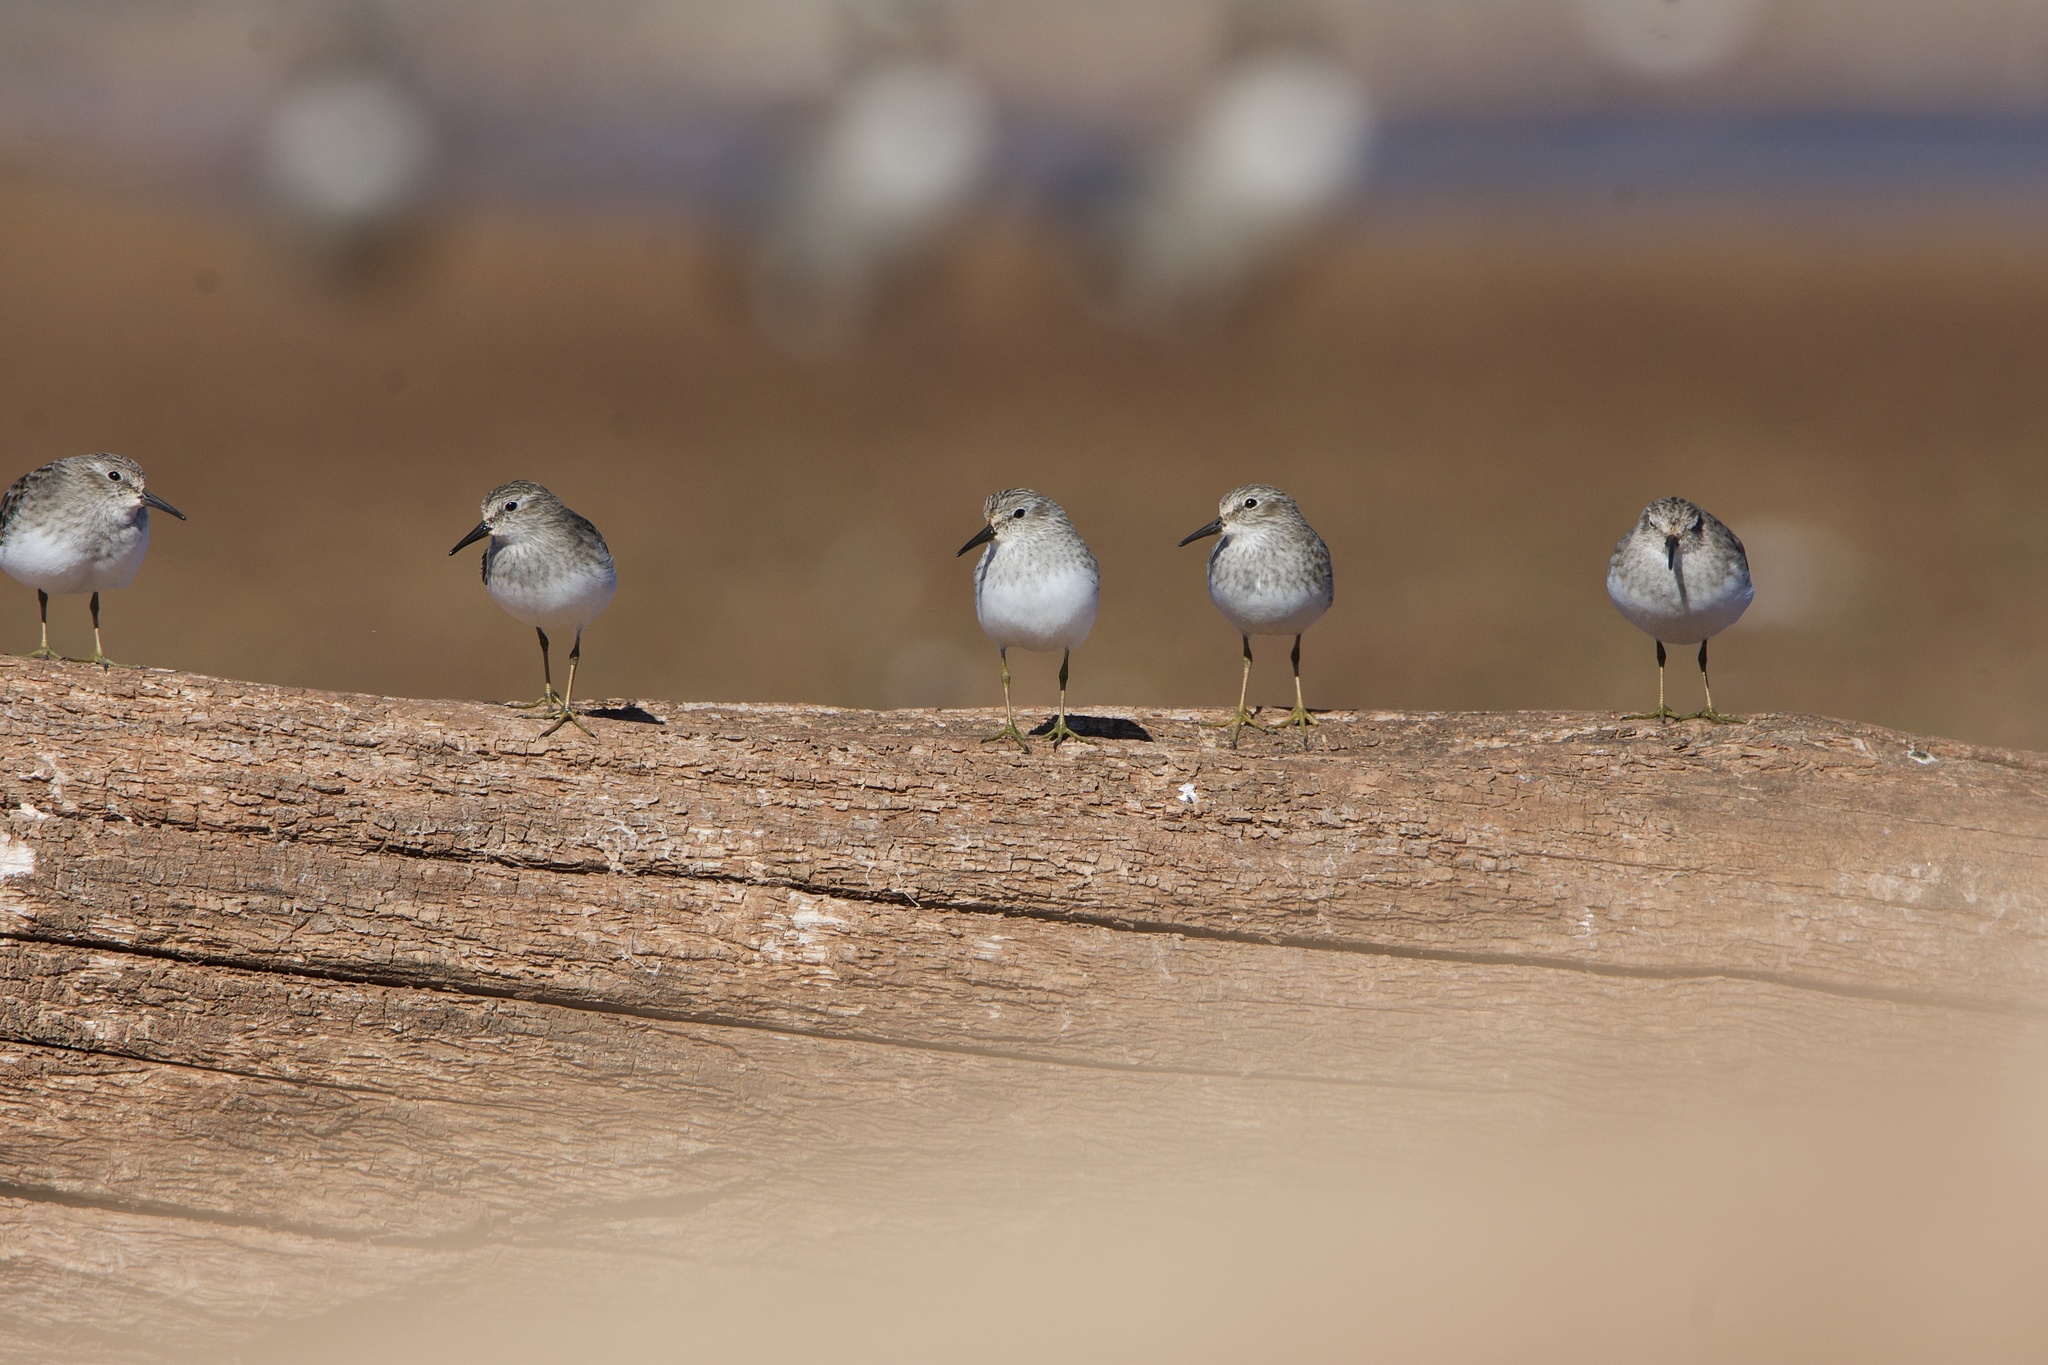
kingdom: Animalia
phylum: Chordata
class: Aves
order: Charadriiformes
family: Scolopacidae
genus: Calidris
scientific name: Calidris minutilla
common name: Least sandpiper
